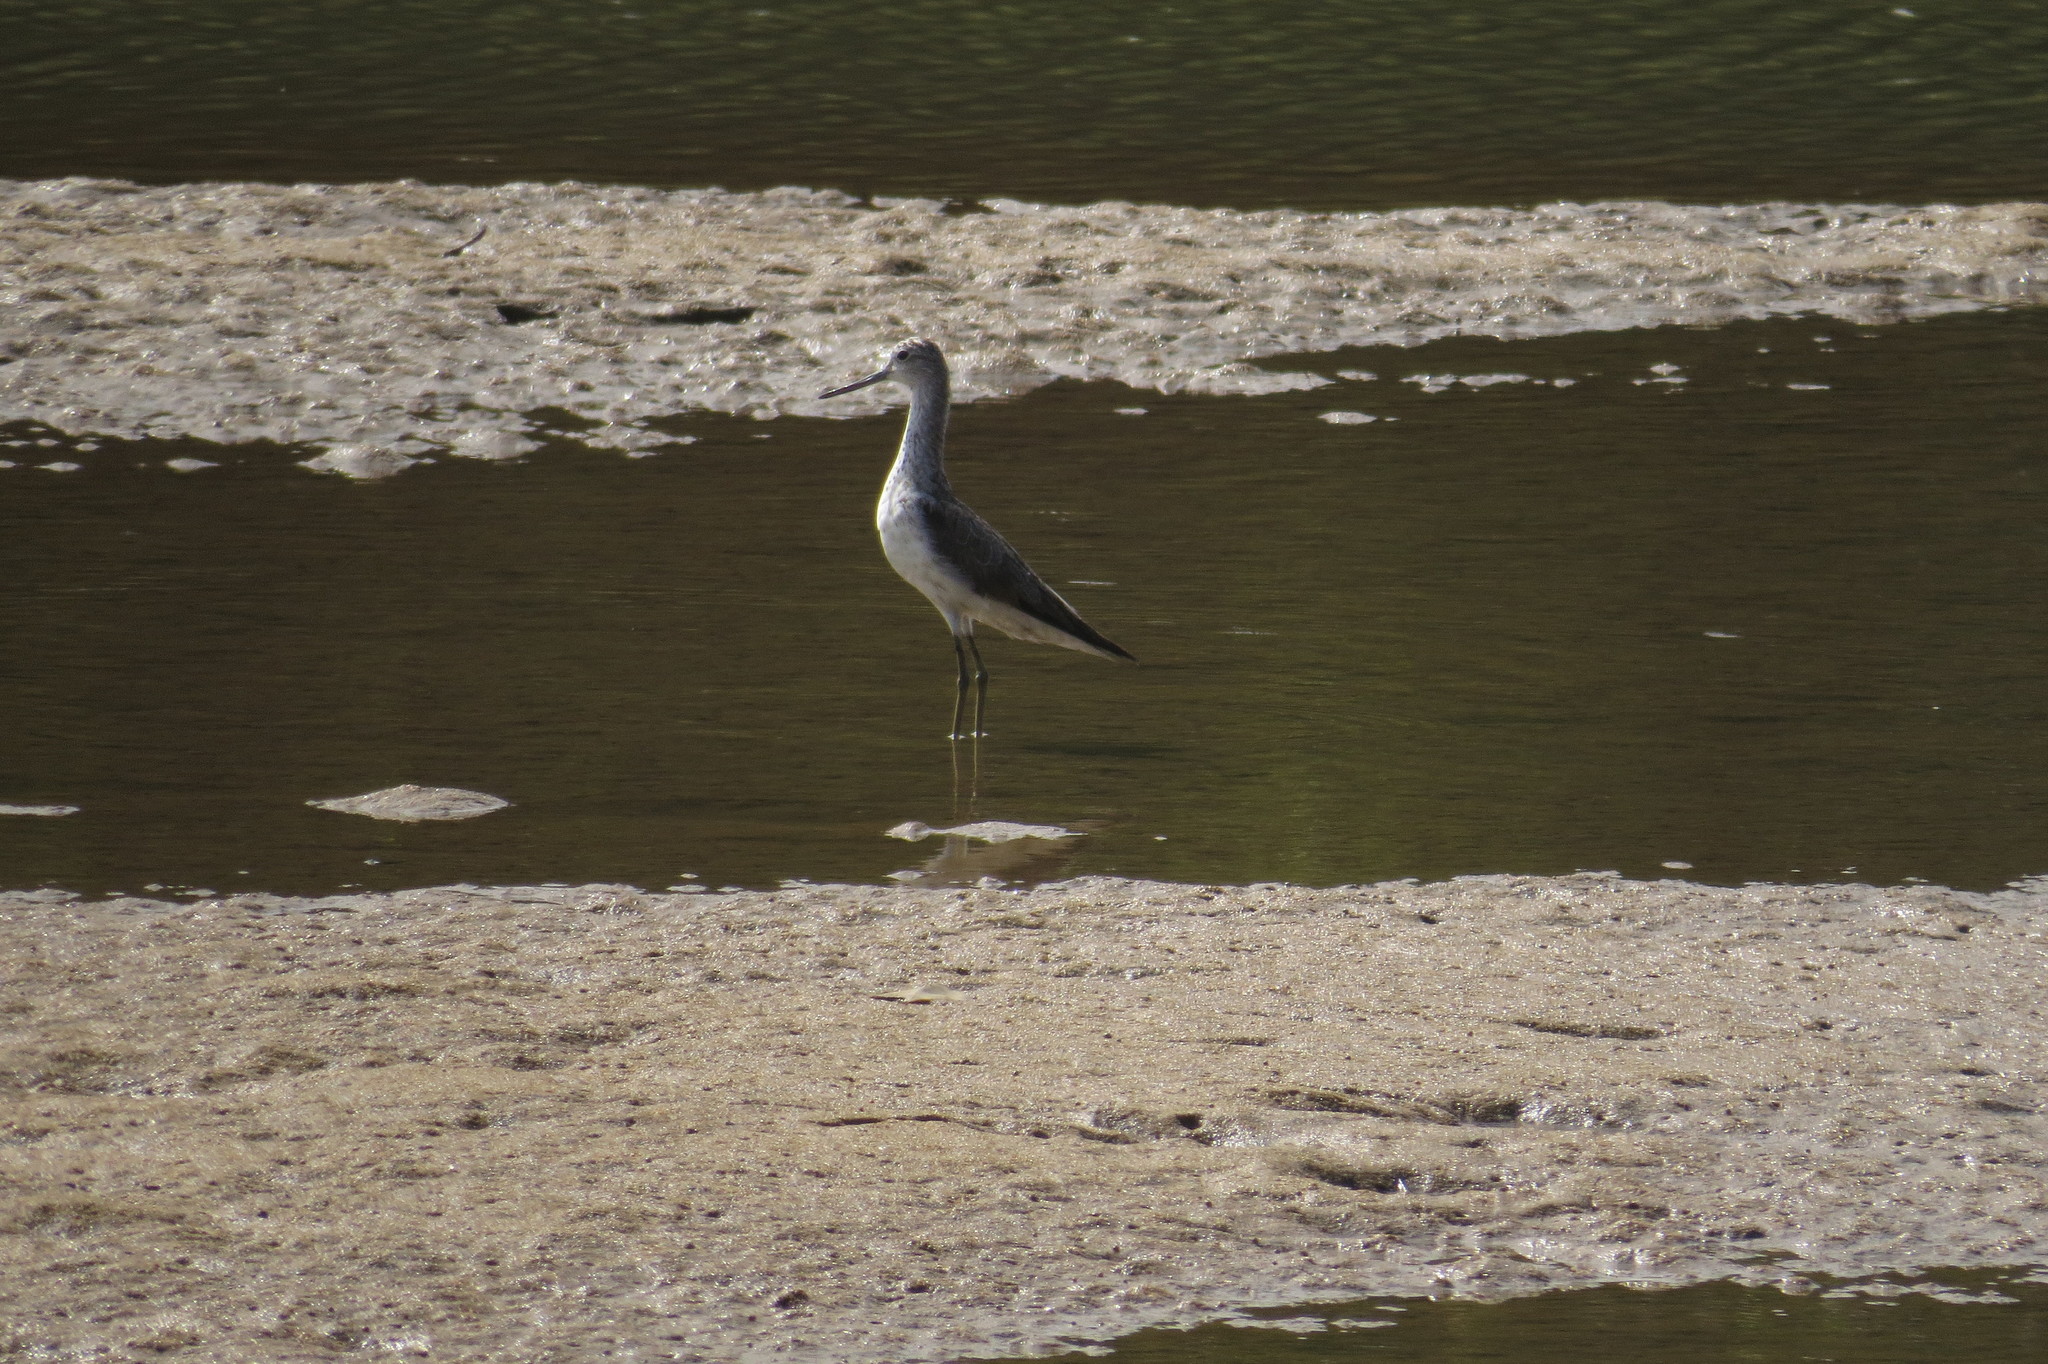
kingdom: Animalia
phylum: Chordata
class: Aves
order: Charadriiformes
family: Scolopacidae
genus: Tringa
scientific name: Tringa nebularia
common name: Common greenshank
